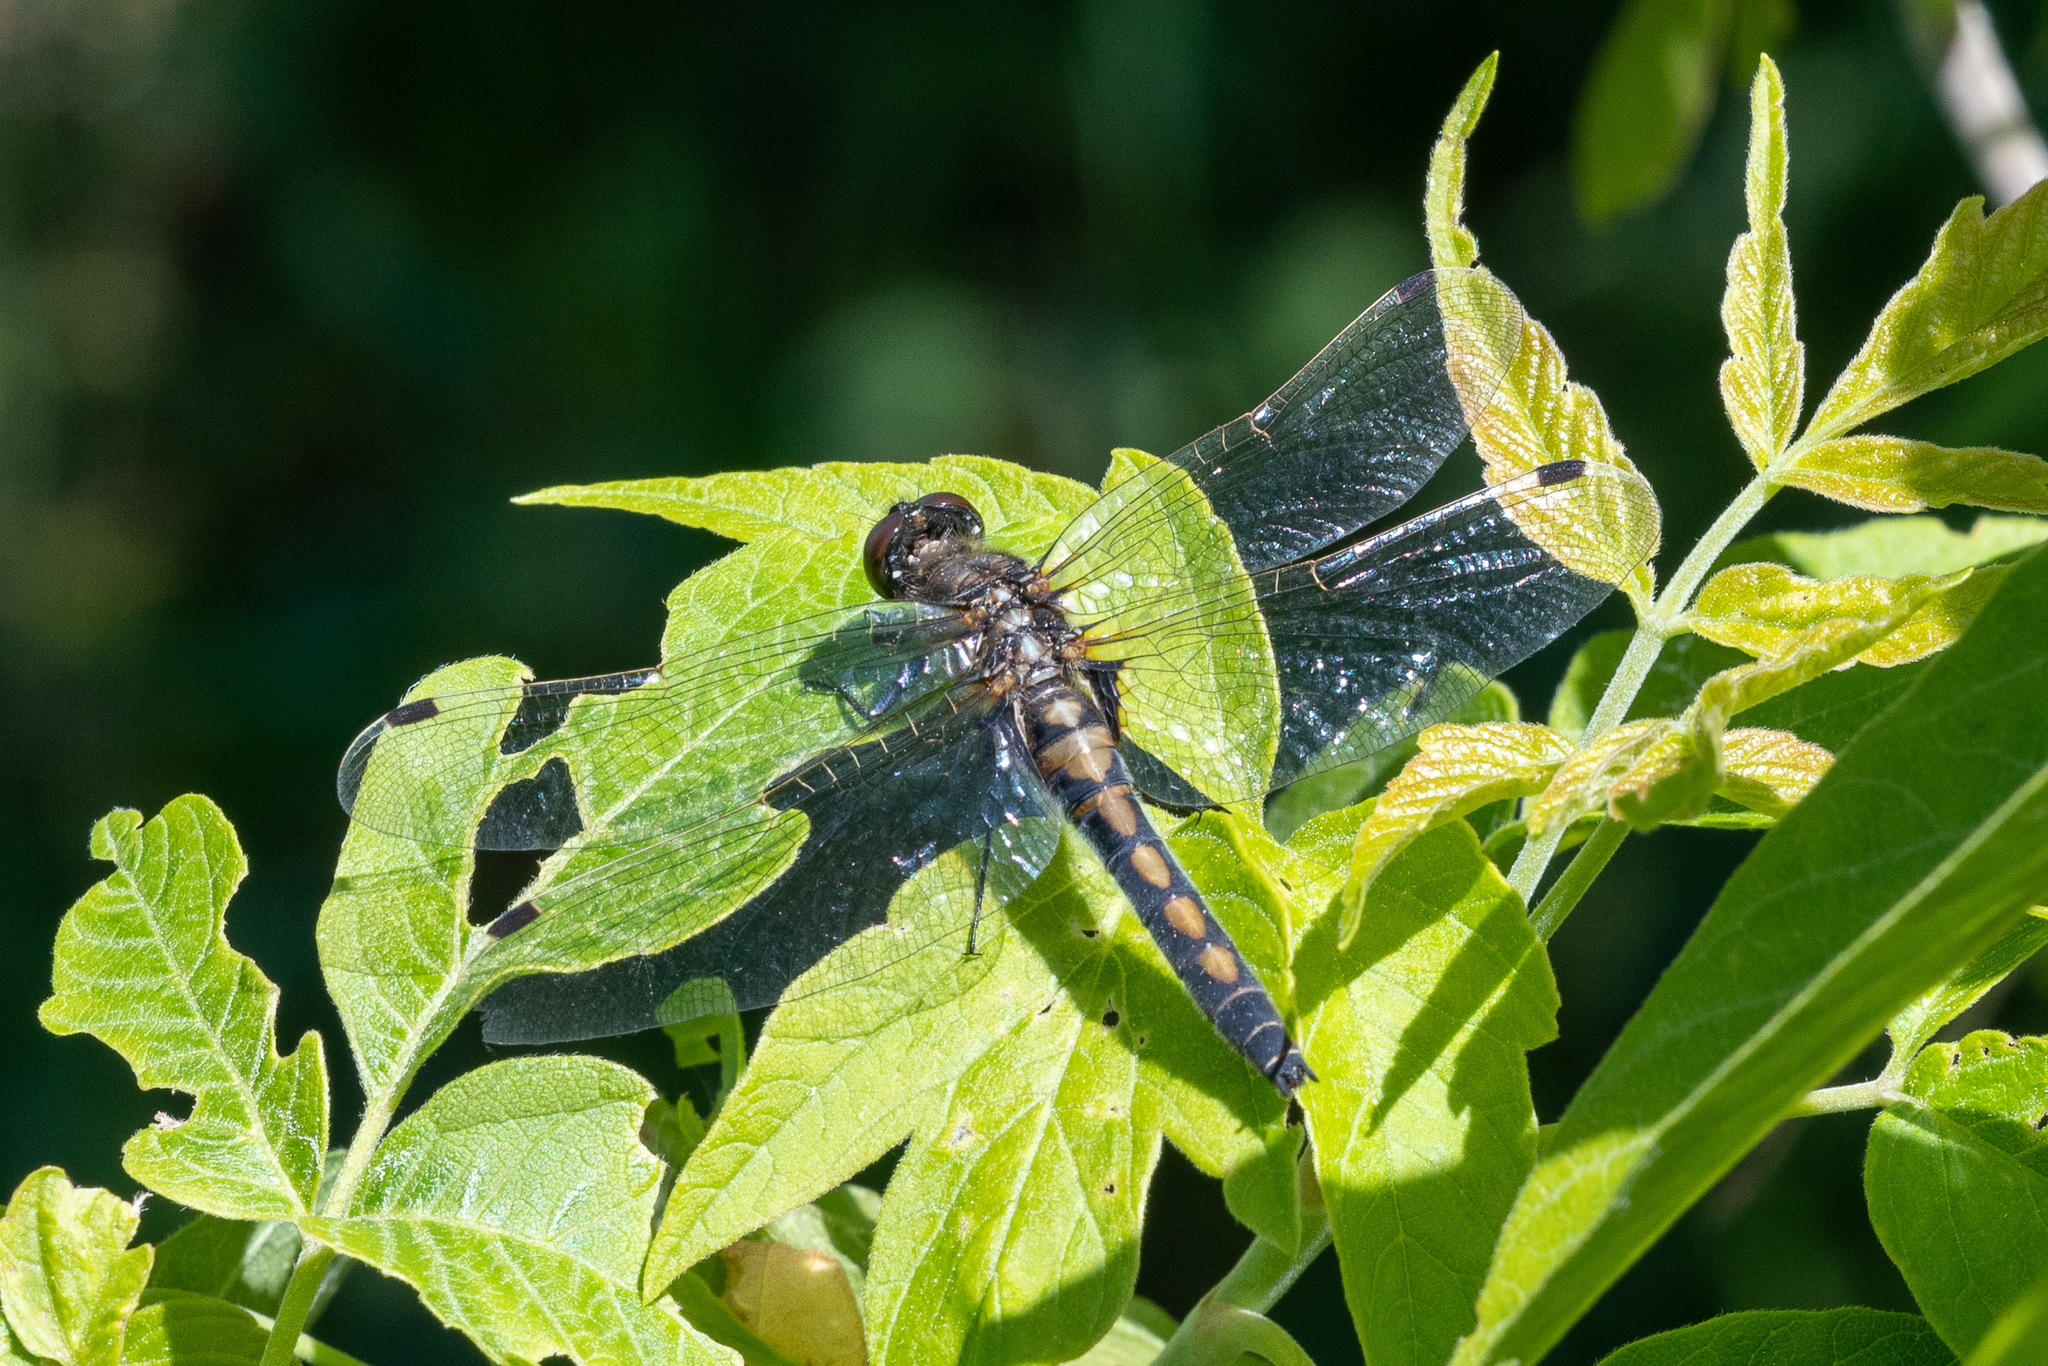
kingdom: Animalia
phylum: Arthropoda
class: Insecta
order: Odonata
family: Libellulidae
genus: Leucorrhinia
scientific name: Leucorrhinia rubicunda
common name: Ruby whiteface
